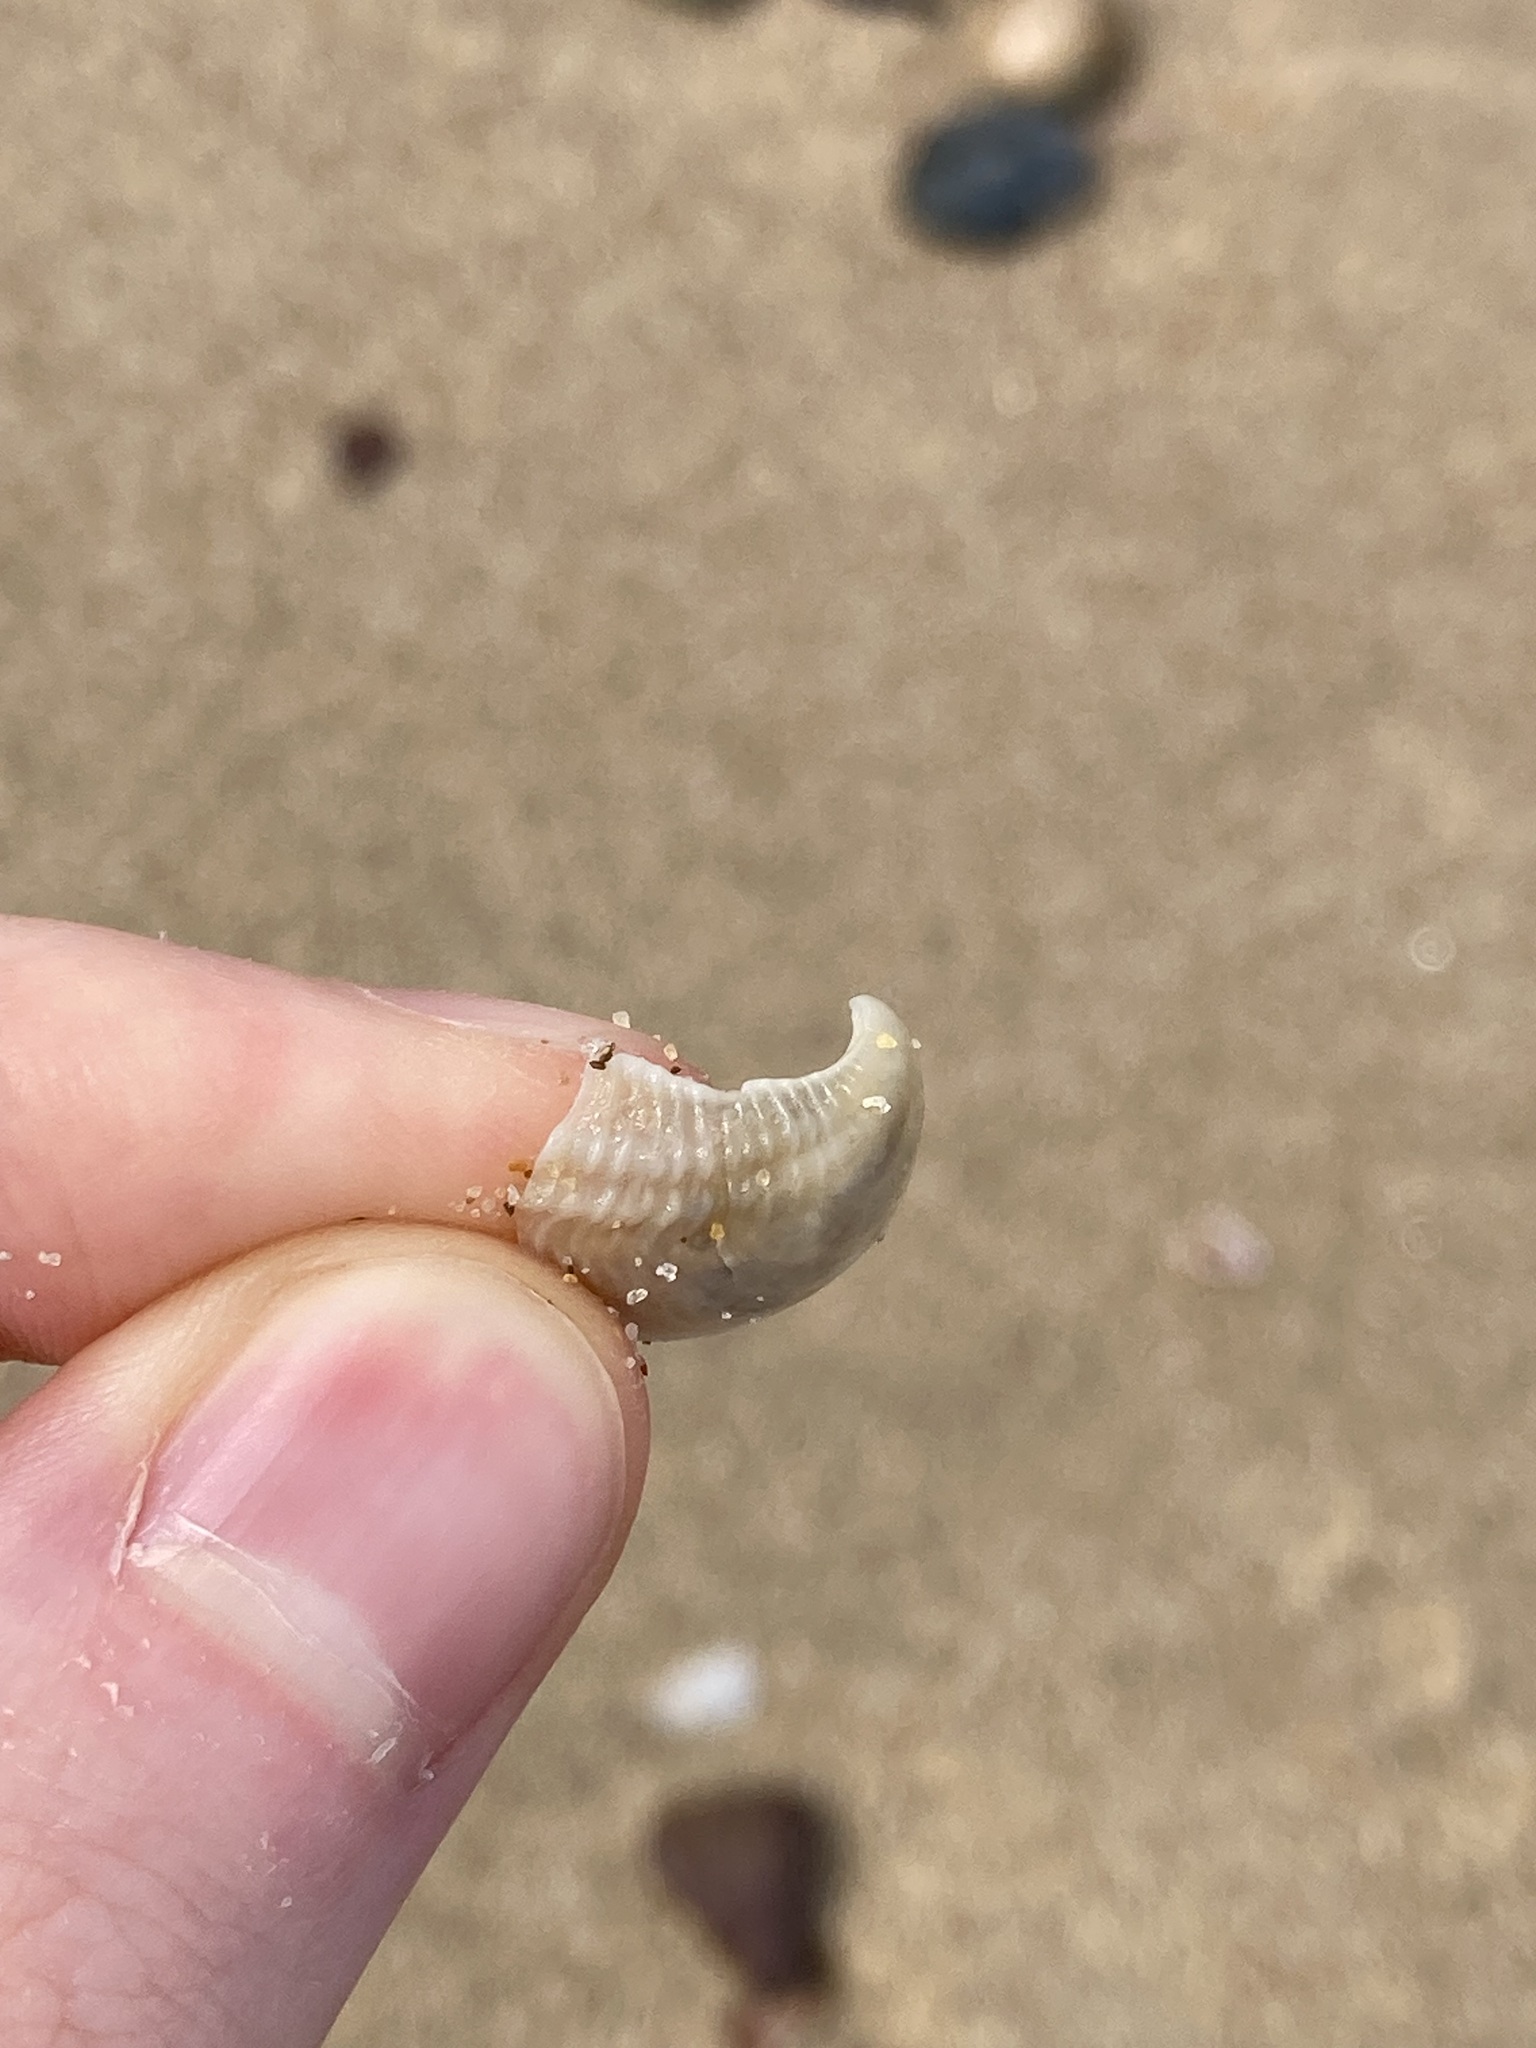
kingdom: Animalia
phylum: Mollusca
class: Bivalvia
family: Myochamidae
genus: Myadora
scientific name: Myadora brevis
